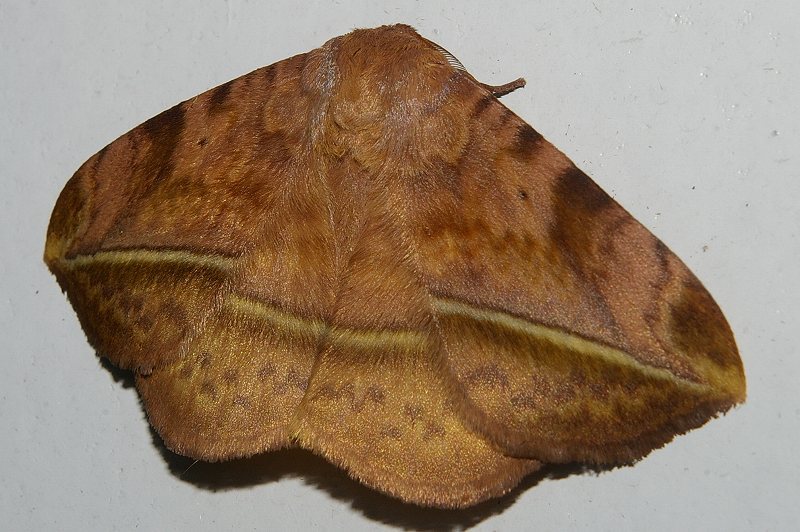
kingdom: Animalia
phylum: Arthropoda
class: Insecta
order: Lepidoptera
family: Eupterotidae
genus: Apha
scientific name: Apha aequalis
